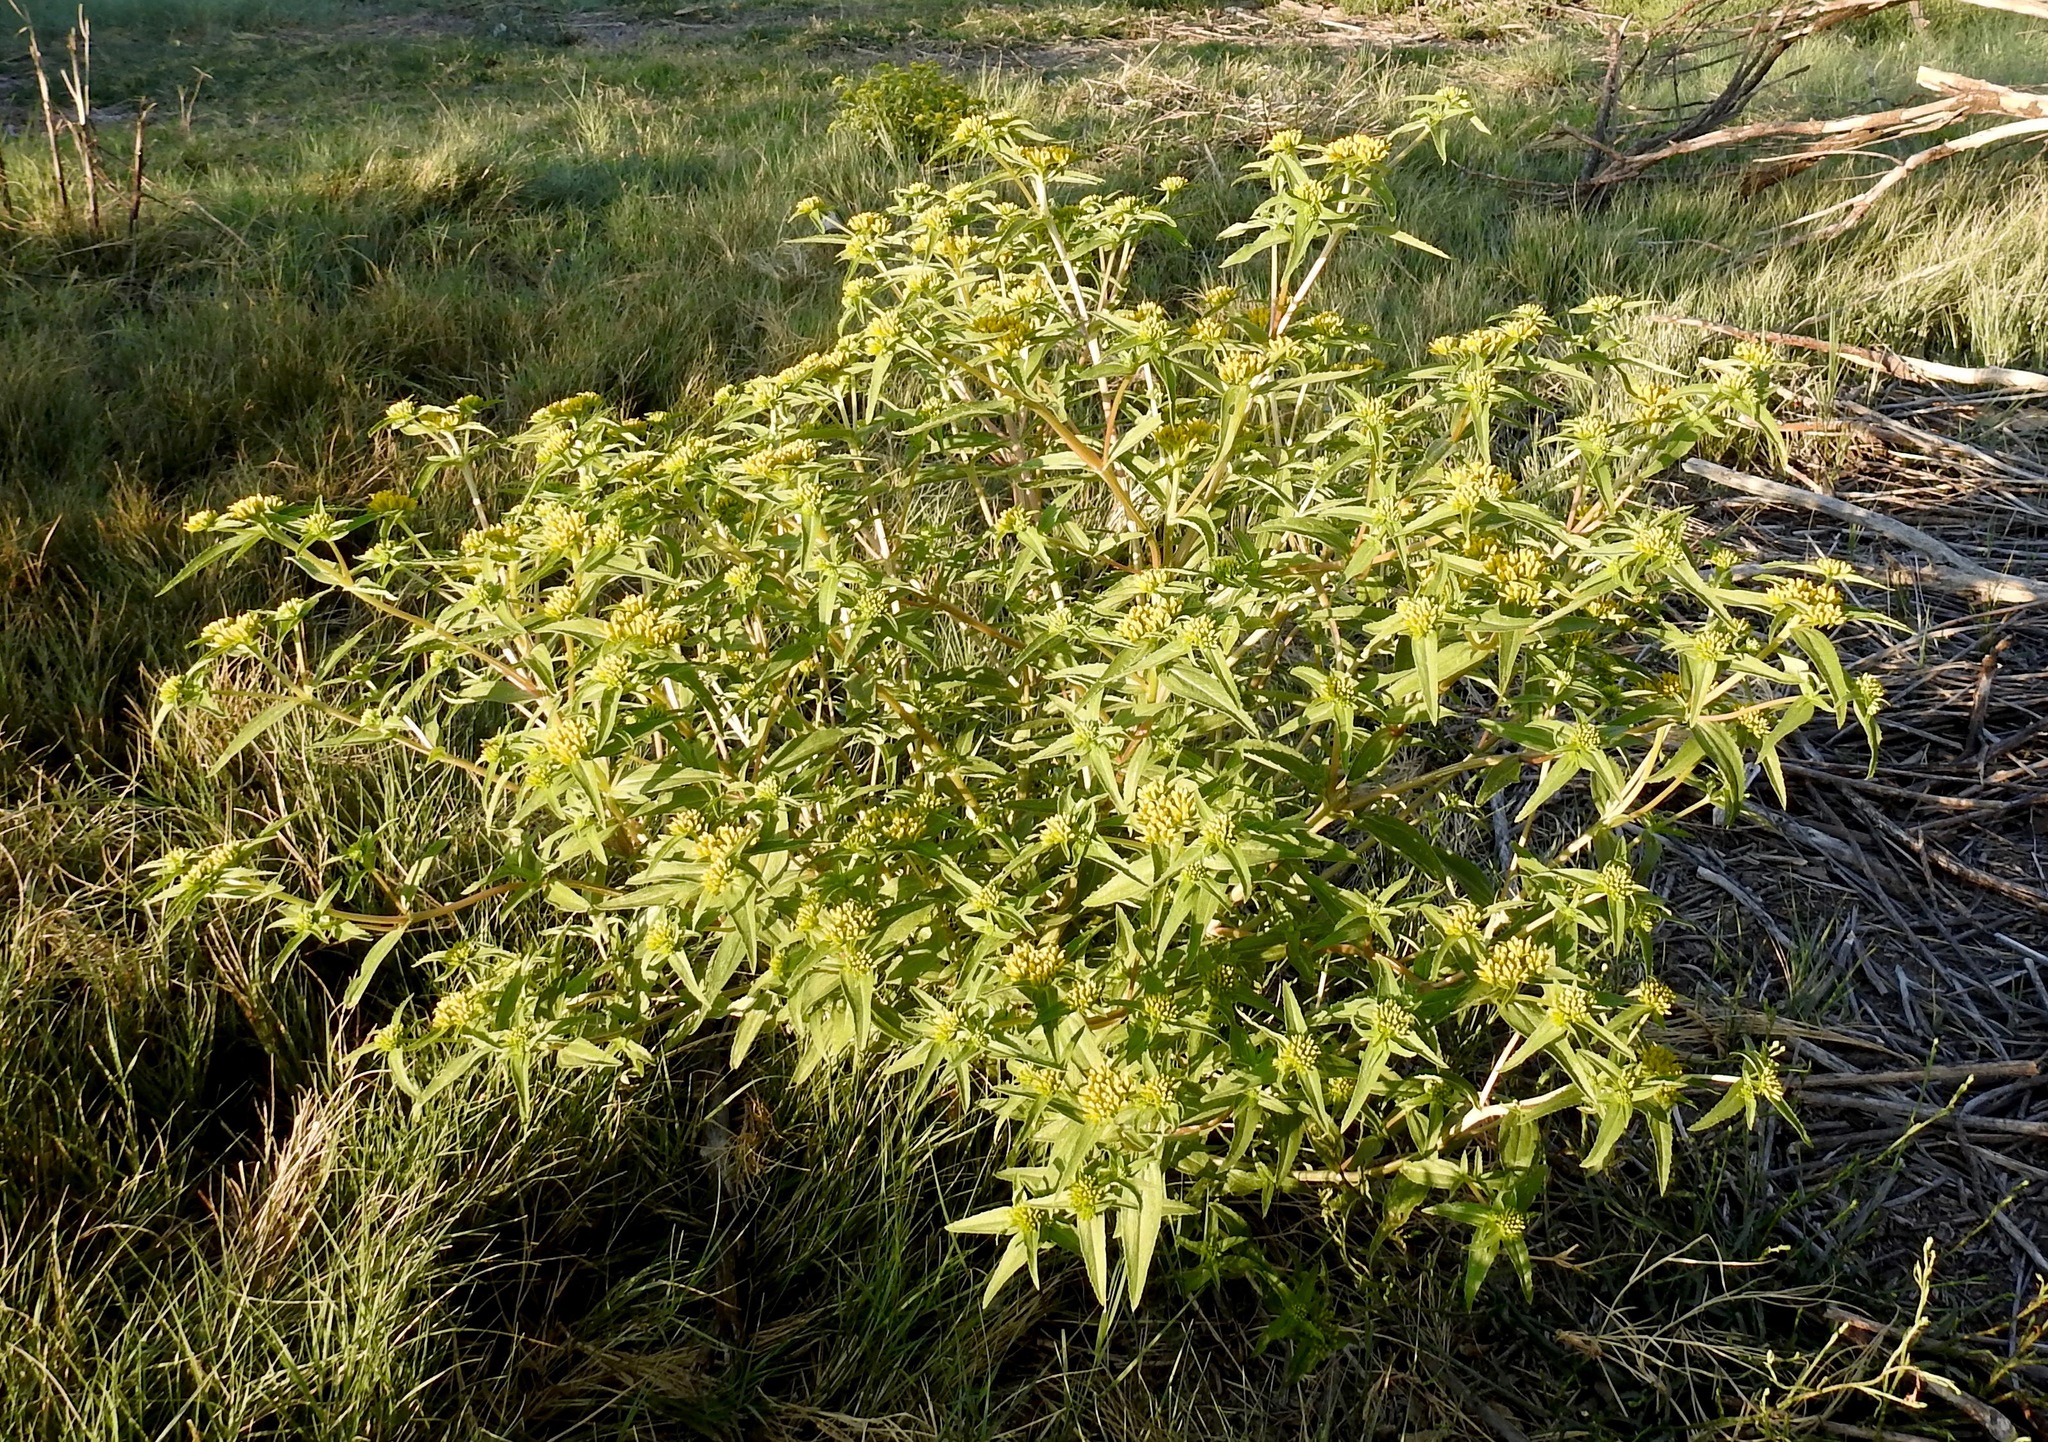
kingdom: Plantae
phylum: Tracheophyta
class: Magnoliopsida
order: Asterales
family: Asteraceae
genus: Flaveria
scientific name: Flaveria campestris
